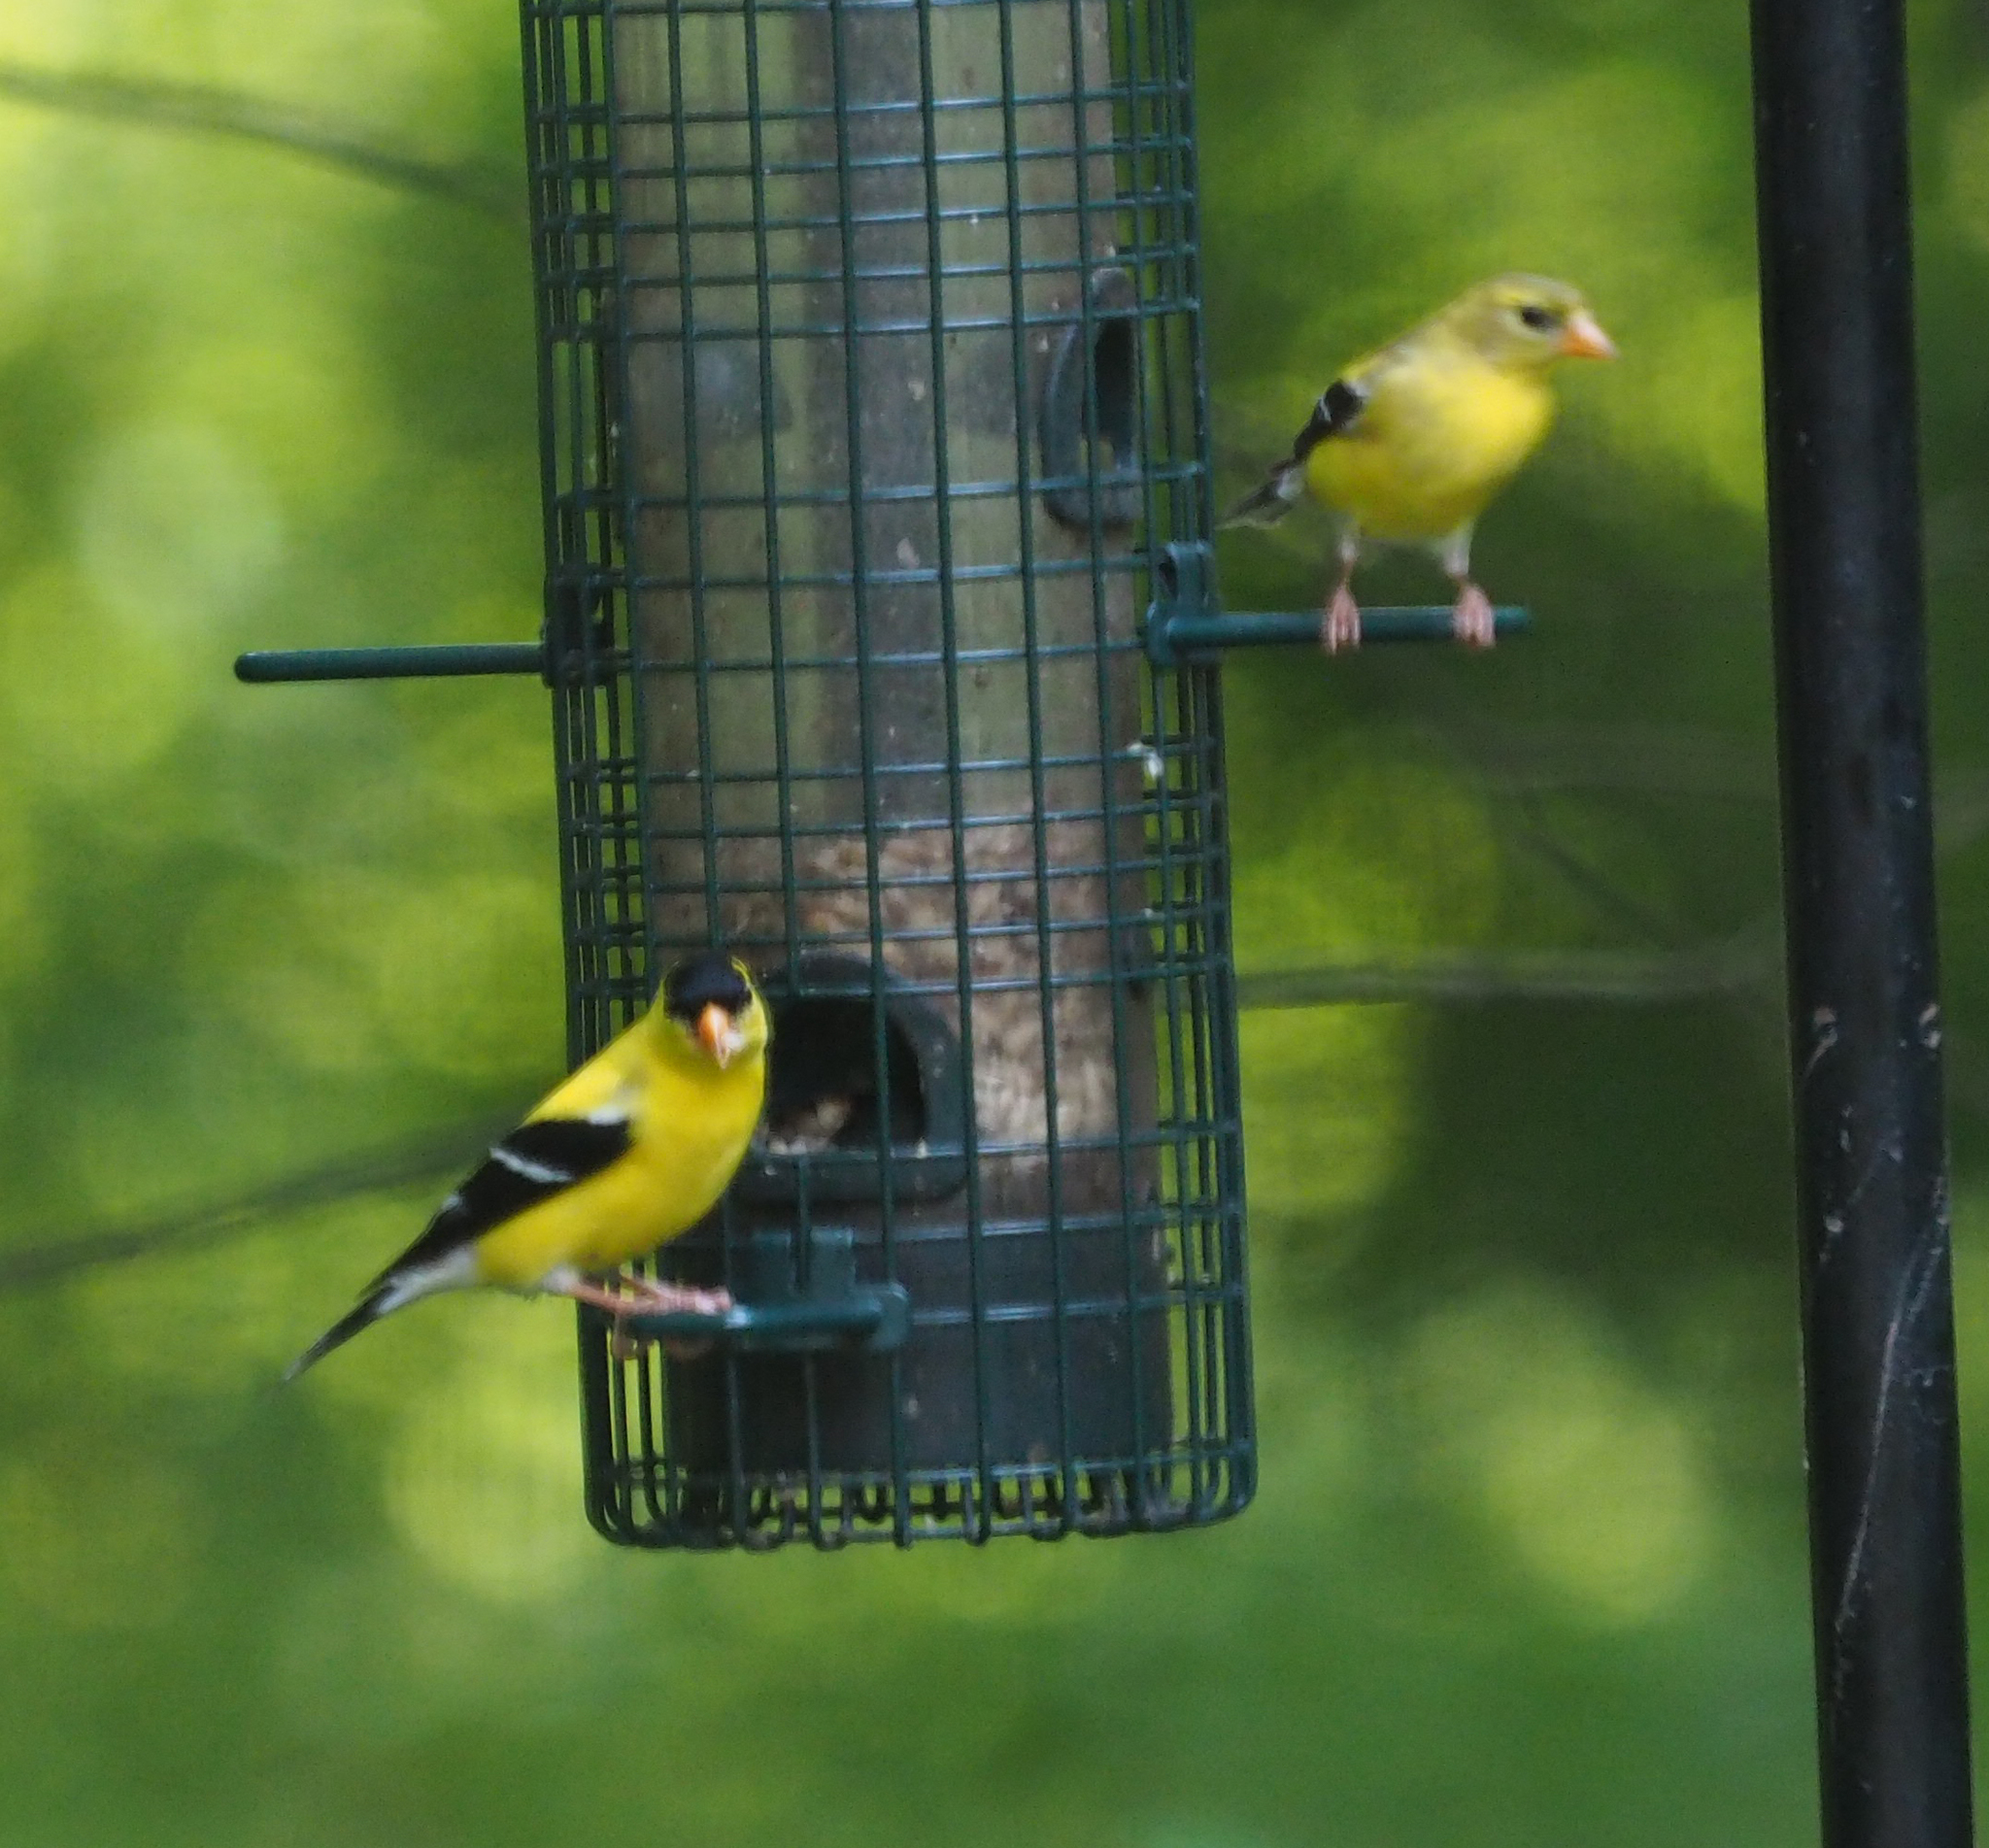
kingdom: Animalia
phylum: Chordata
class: Aves
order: Passeriformes
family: Fringillidae
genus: Spinus
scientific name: Spinus tristis
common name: American goldfinch
